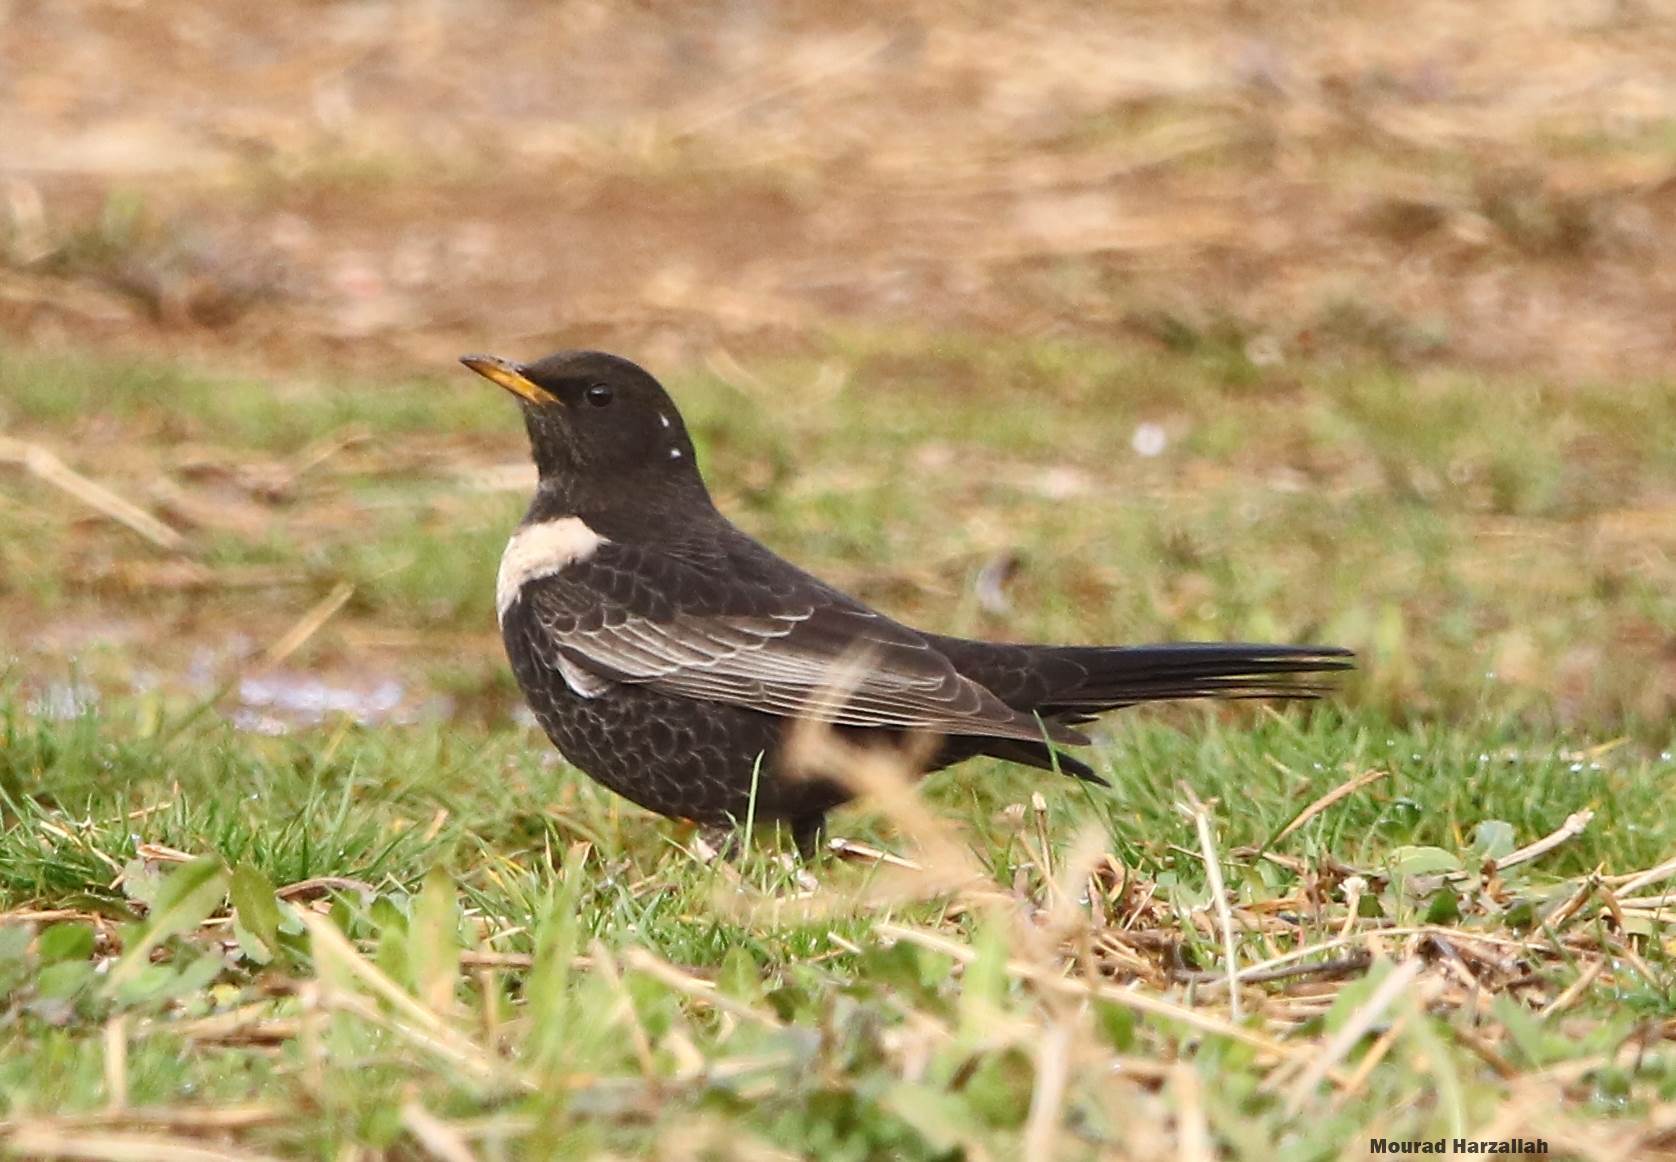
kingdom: Animalia
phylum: Chordata
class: Aves
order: Passeriformes
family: Turdidae
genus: Turdus
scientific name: Turdus torquatus
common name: Ring ouzel
